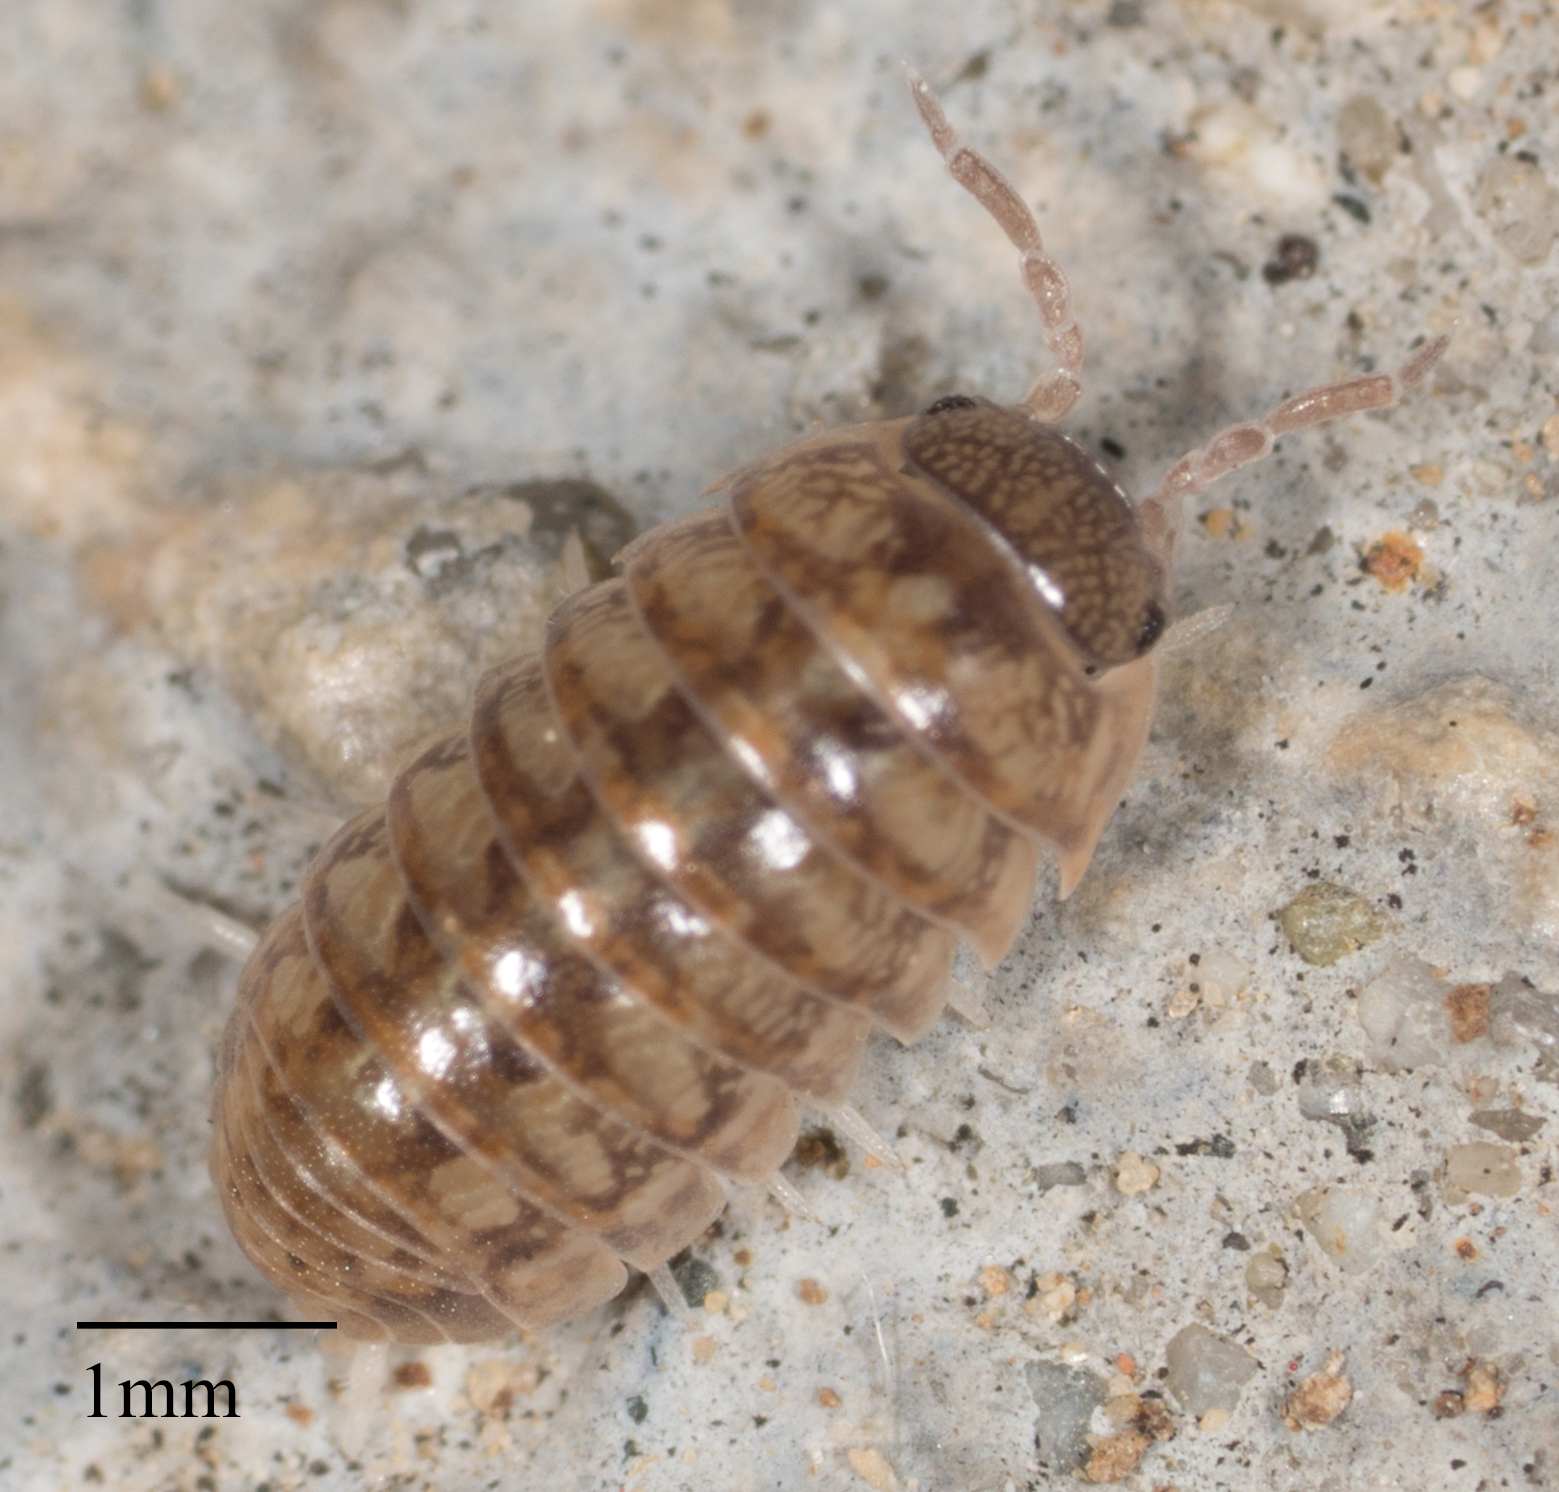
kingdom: Animalia
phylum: Arthropoda
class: Malacostraca
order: Isopoda
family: Armadillidiidae
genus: Armadillidium
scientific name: Armadillidium vulgare
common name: Common pill woodlouse
